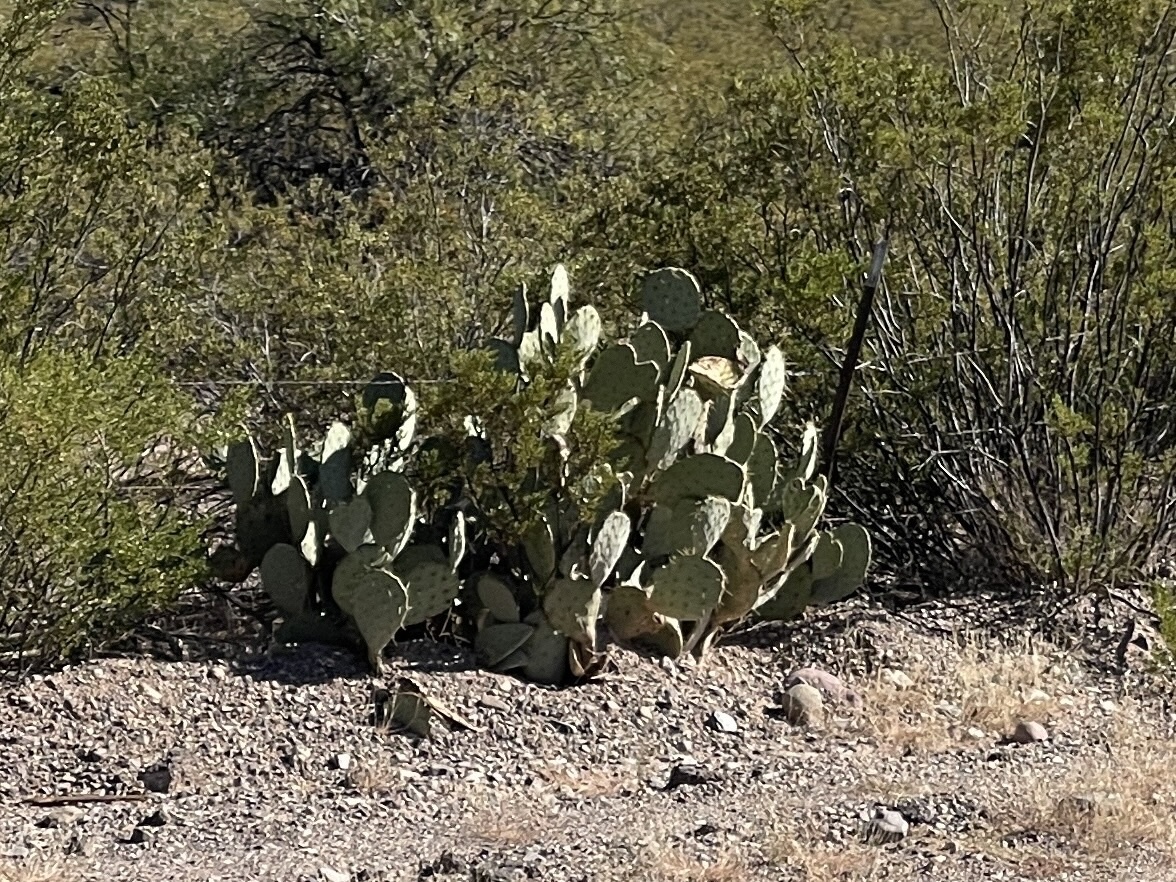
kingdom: Plantae
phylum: Tracheophyta
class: Magnoliopsida
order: Caryophyllales
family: Cactaceae
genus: Opuntia
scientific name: Opuntia engelmannii
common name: Cactus-apple
